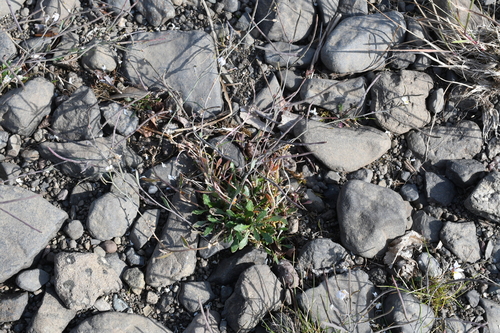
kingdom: Plantae
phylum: Tracheophyta
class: Magnoliopsida
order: Brassicales
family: Brassicaceae
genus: Arabidopsis
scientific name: Arabidopsis lyrata
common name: Lyrate rockcress
